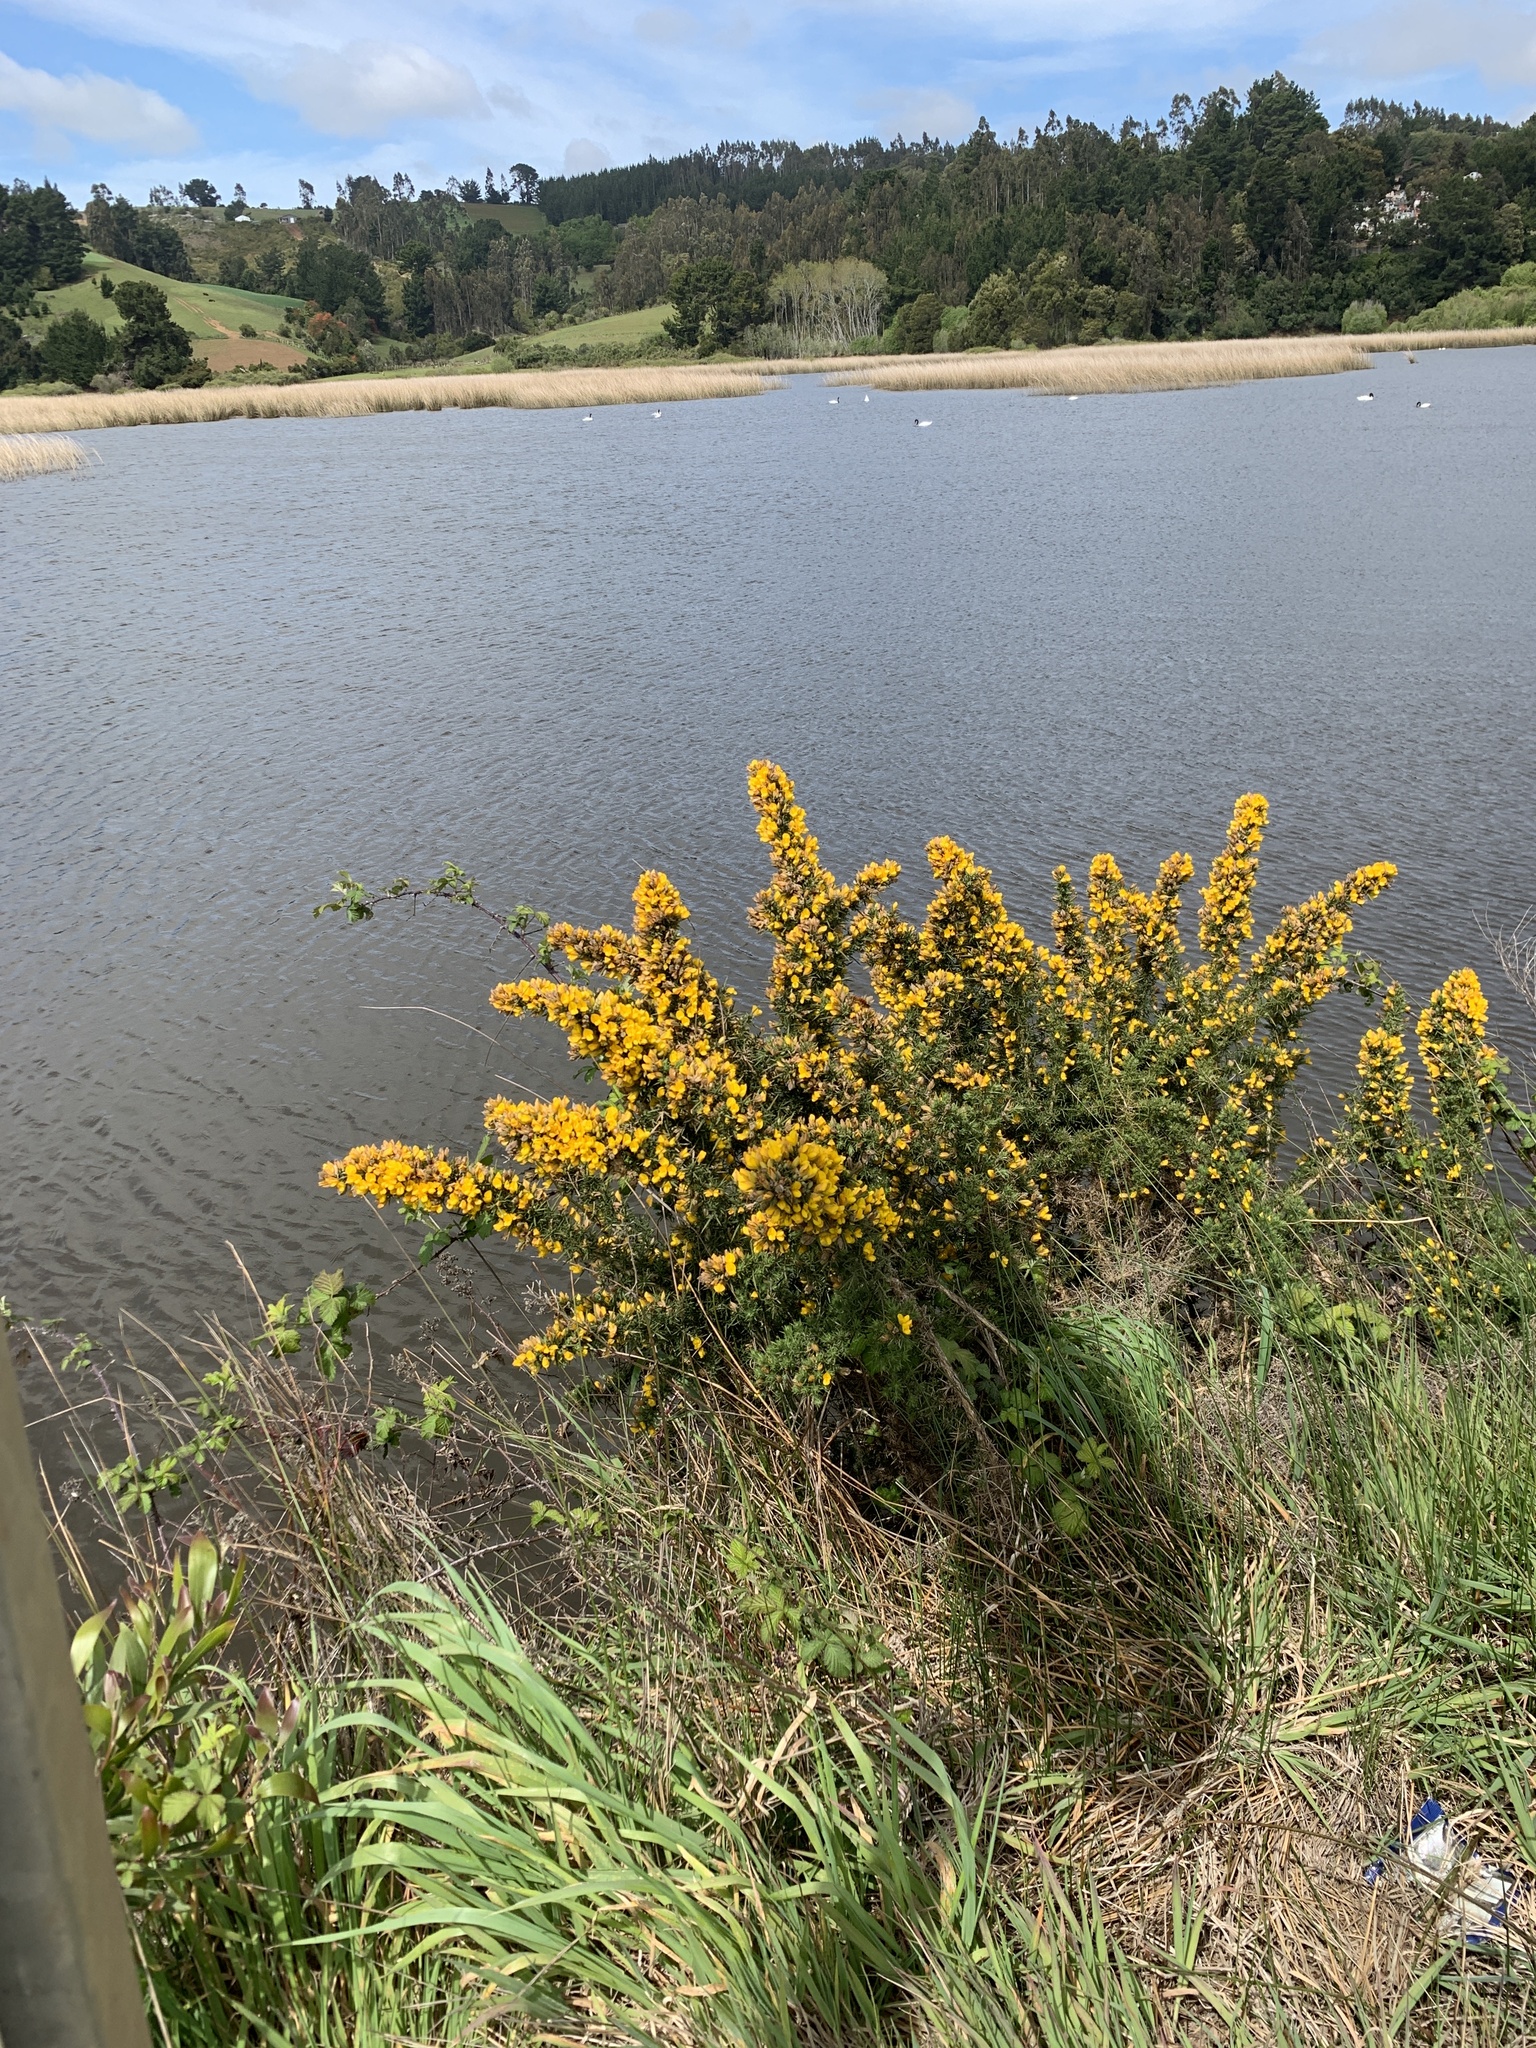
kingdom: Plantae
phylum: Tracheophyta
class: Magnoliopsida
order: Fabales
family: Fabaceae
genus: Ulex
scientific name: Ulex europaeus
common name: Common gorse
